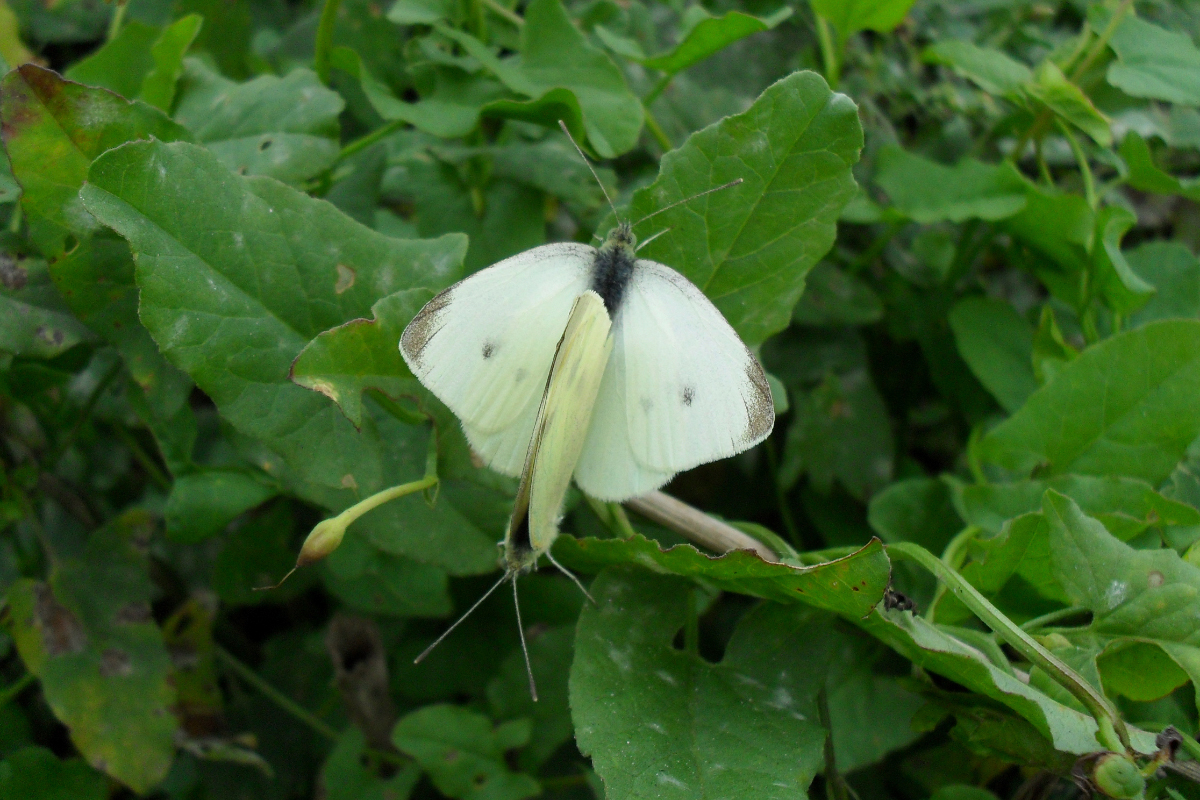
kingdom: Animalia
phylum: Arthropoda
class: Insecta
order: Lepidoptera
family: Pieridae
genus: Pieris
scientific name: Pieris rapae
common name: Small white
